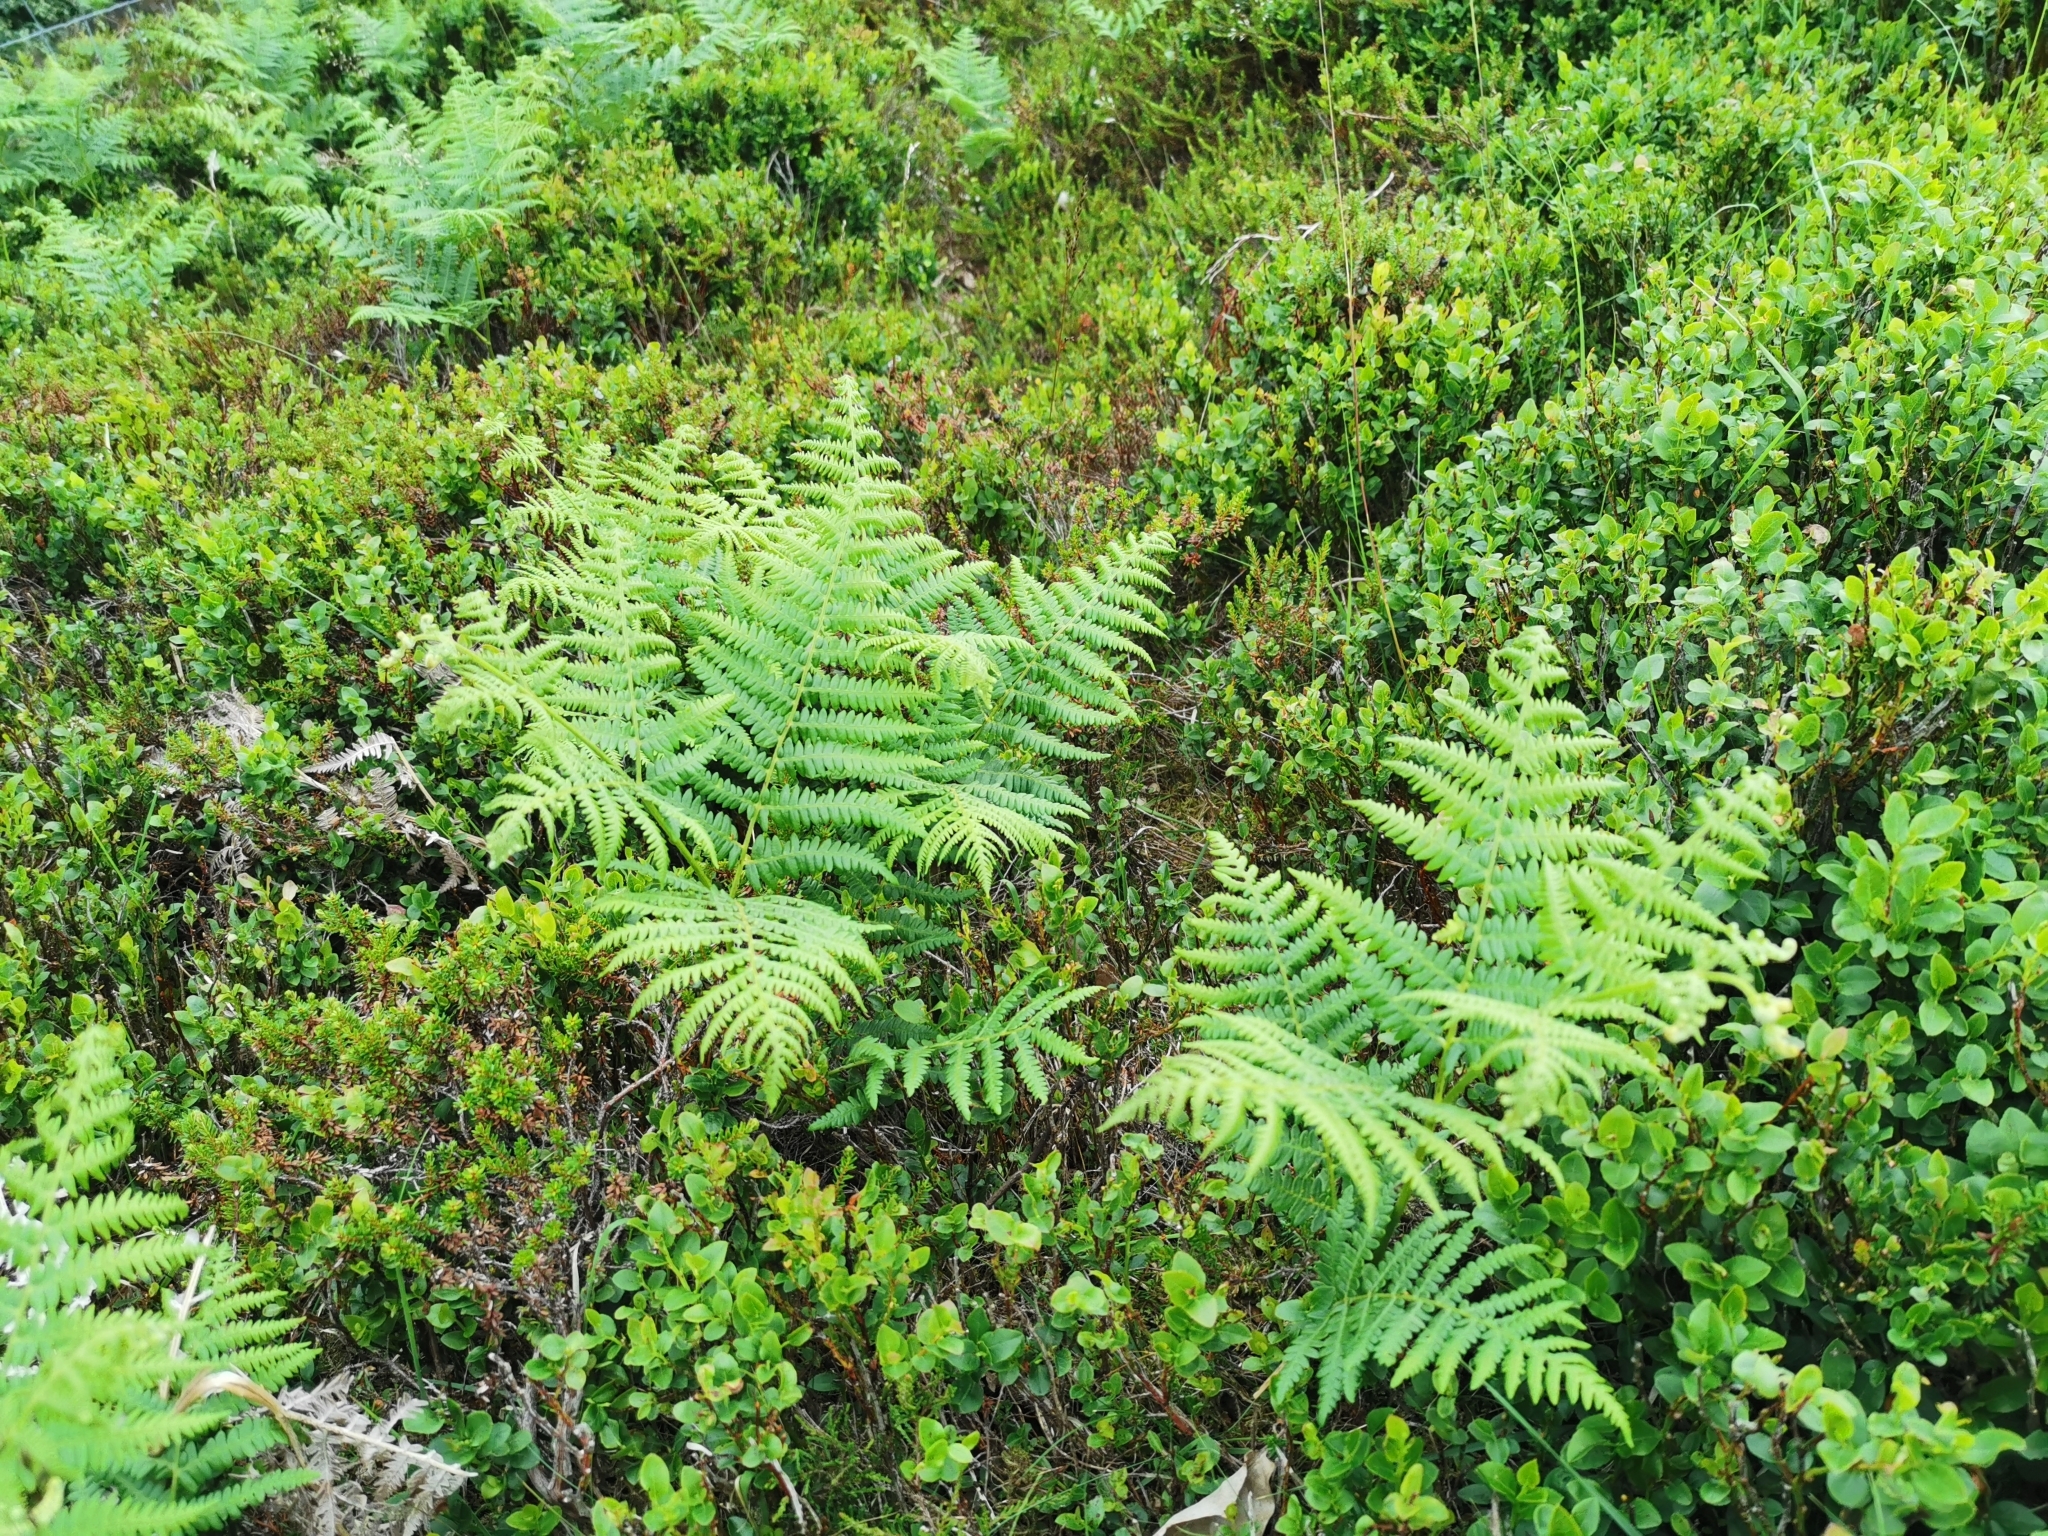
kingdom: Plantae
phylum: Tracheophyta
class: Polypodiopsida
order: Polypodiales
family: Dennstaedtiaceae
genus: Pteridium
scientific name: Pteridium aquilinum
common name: Bracken
